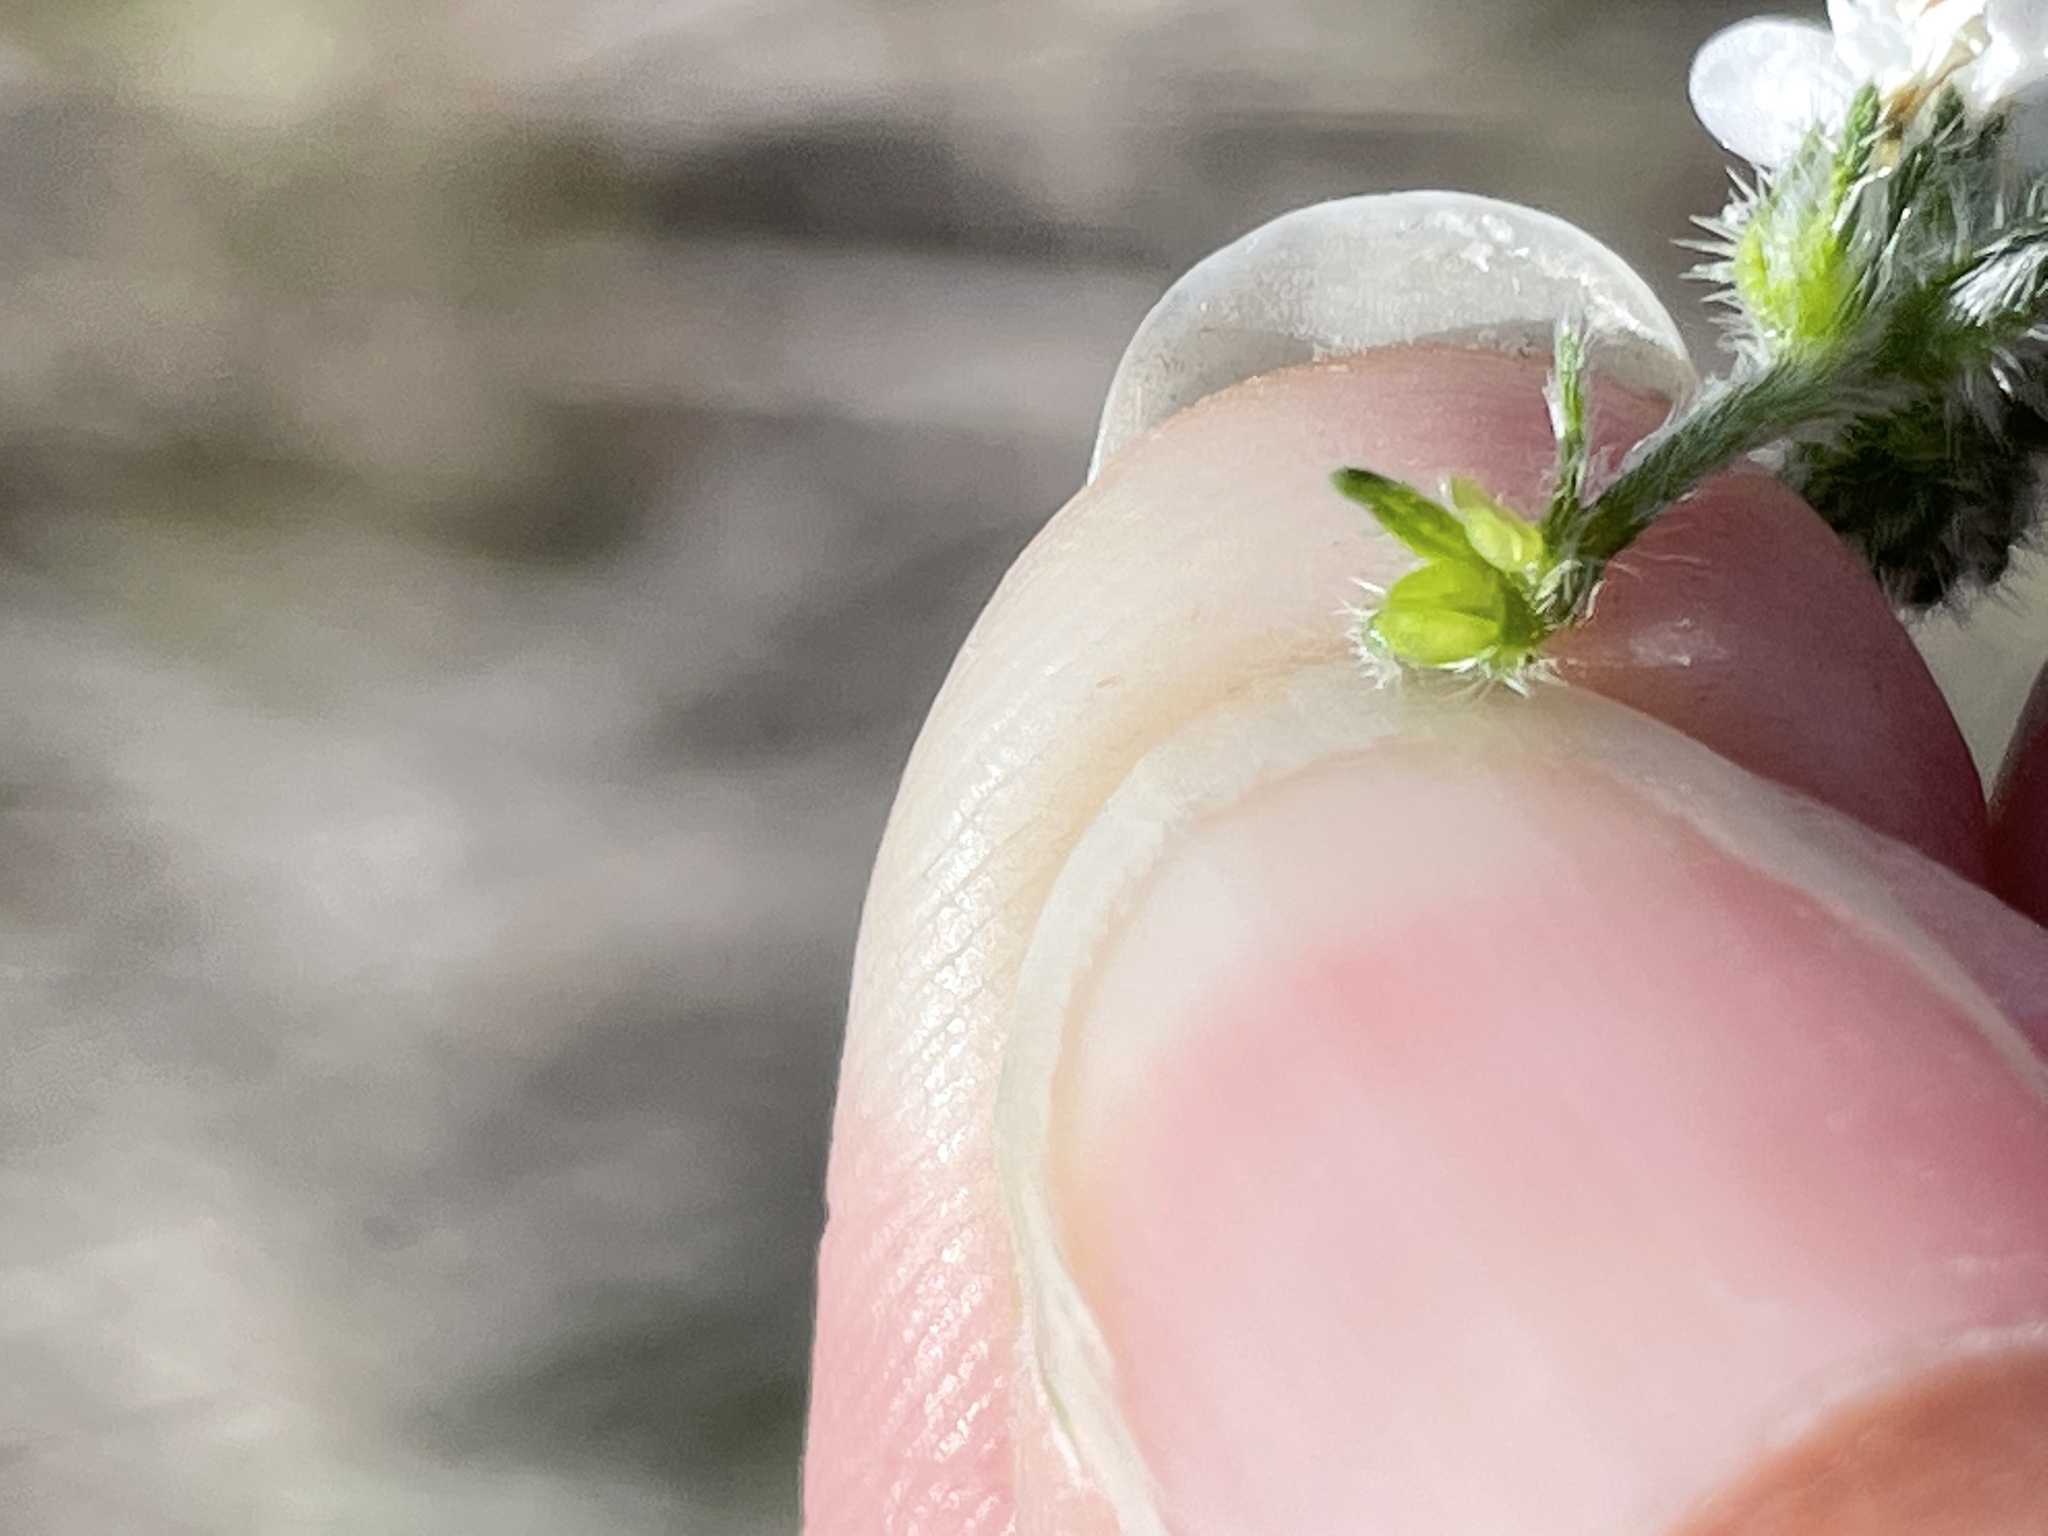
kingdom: Plantae
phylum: Tracheophyta
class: Magnoliopsida
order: Boraginales
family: Boraginaceae
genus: Cryptantha
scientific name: Cryptantha kinkiensis
